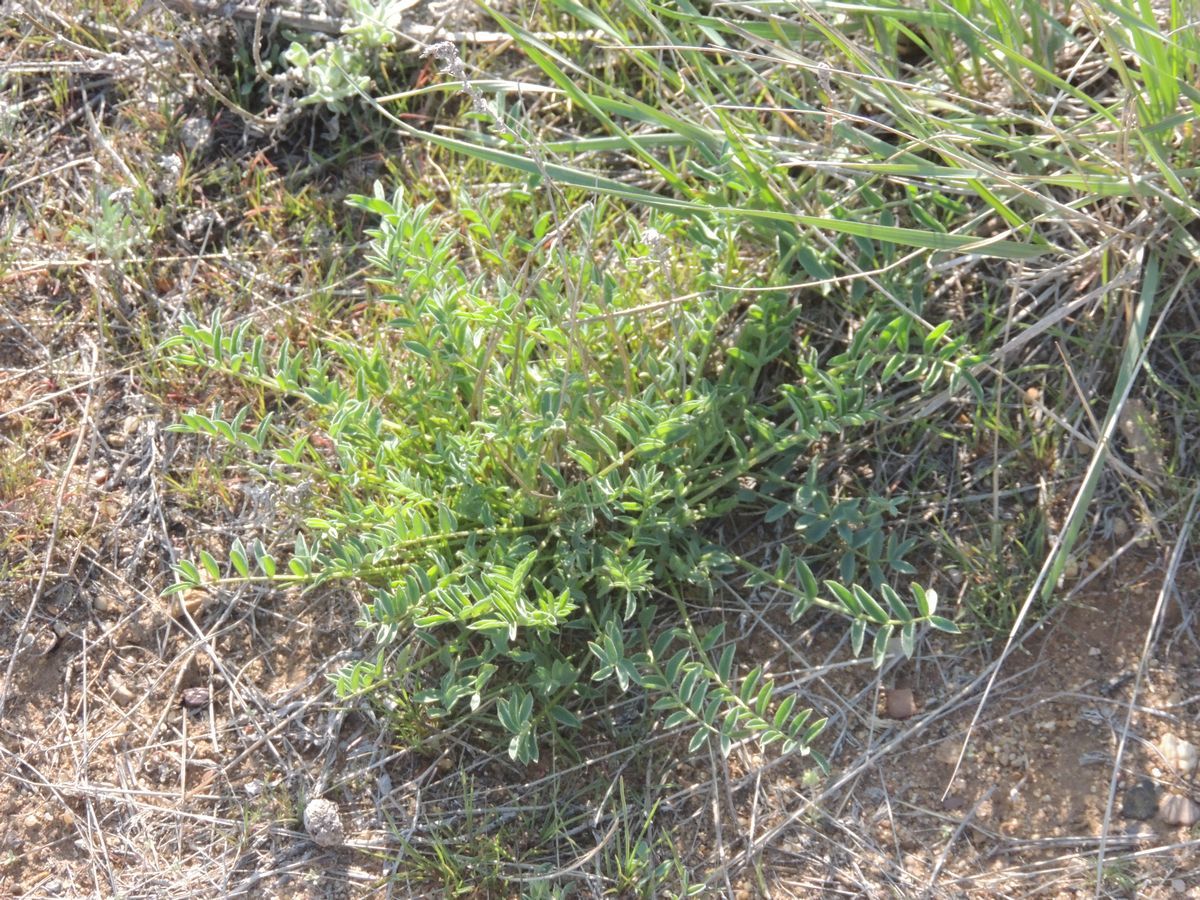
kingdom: Plantae
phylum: Tracheophyta
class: Magnoliopsida
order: Fabales
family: Fabaceae
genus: Astragalus
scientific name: Astragalus physodes
